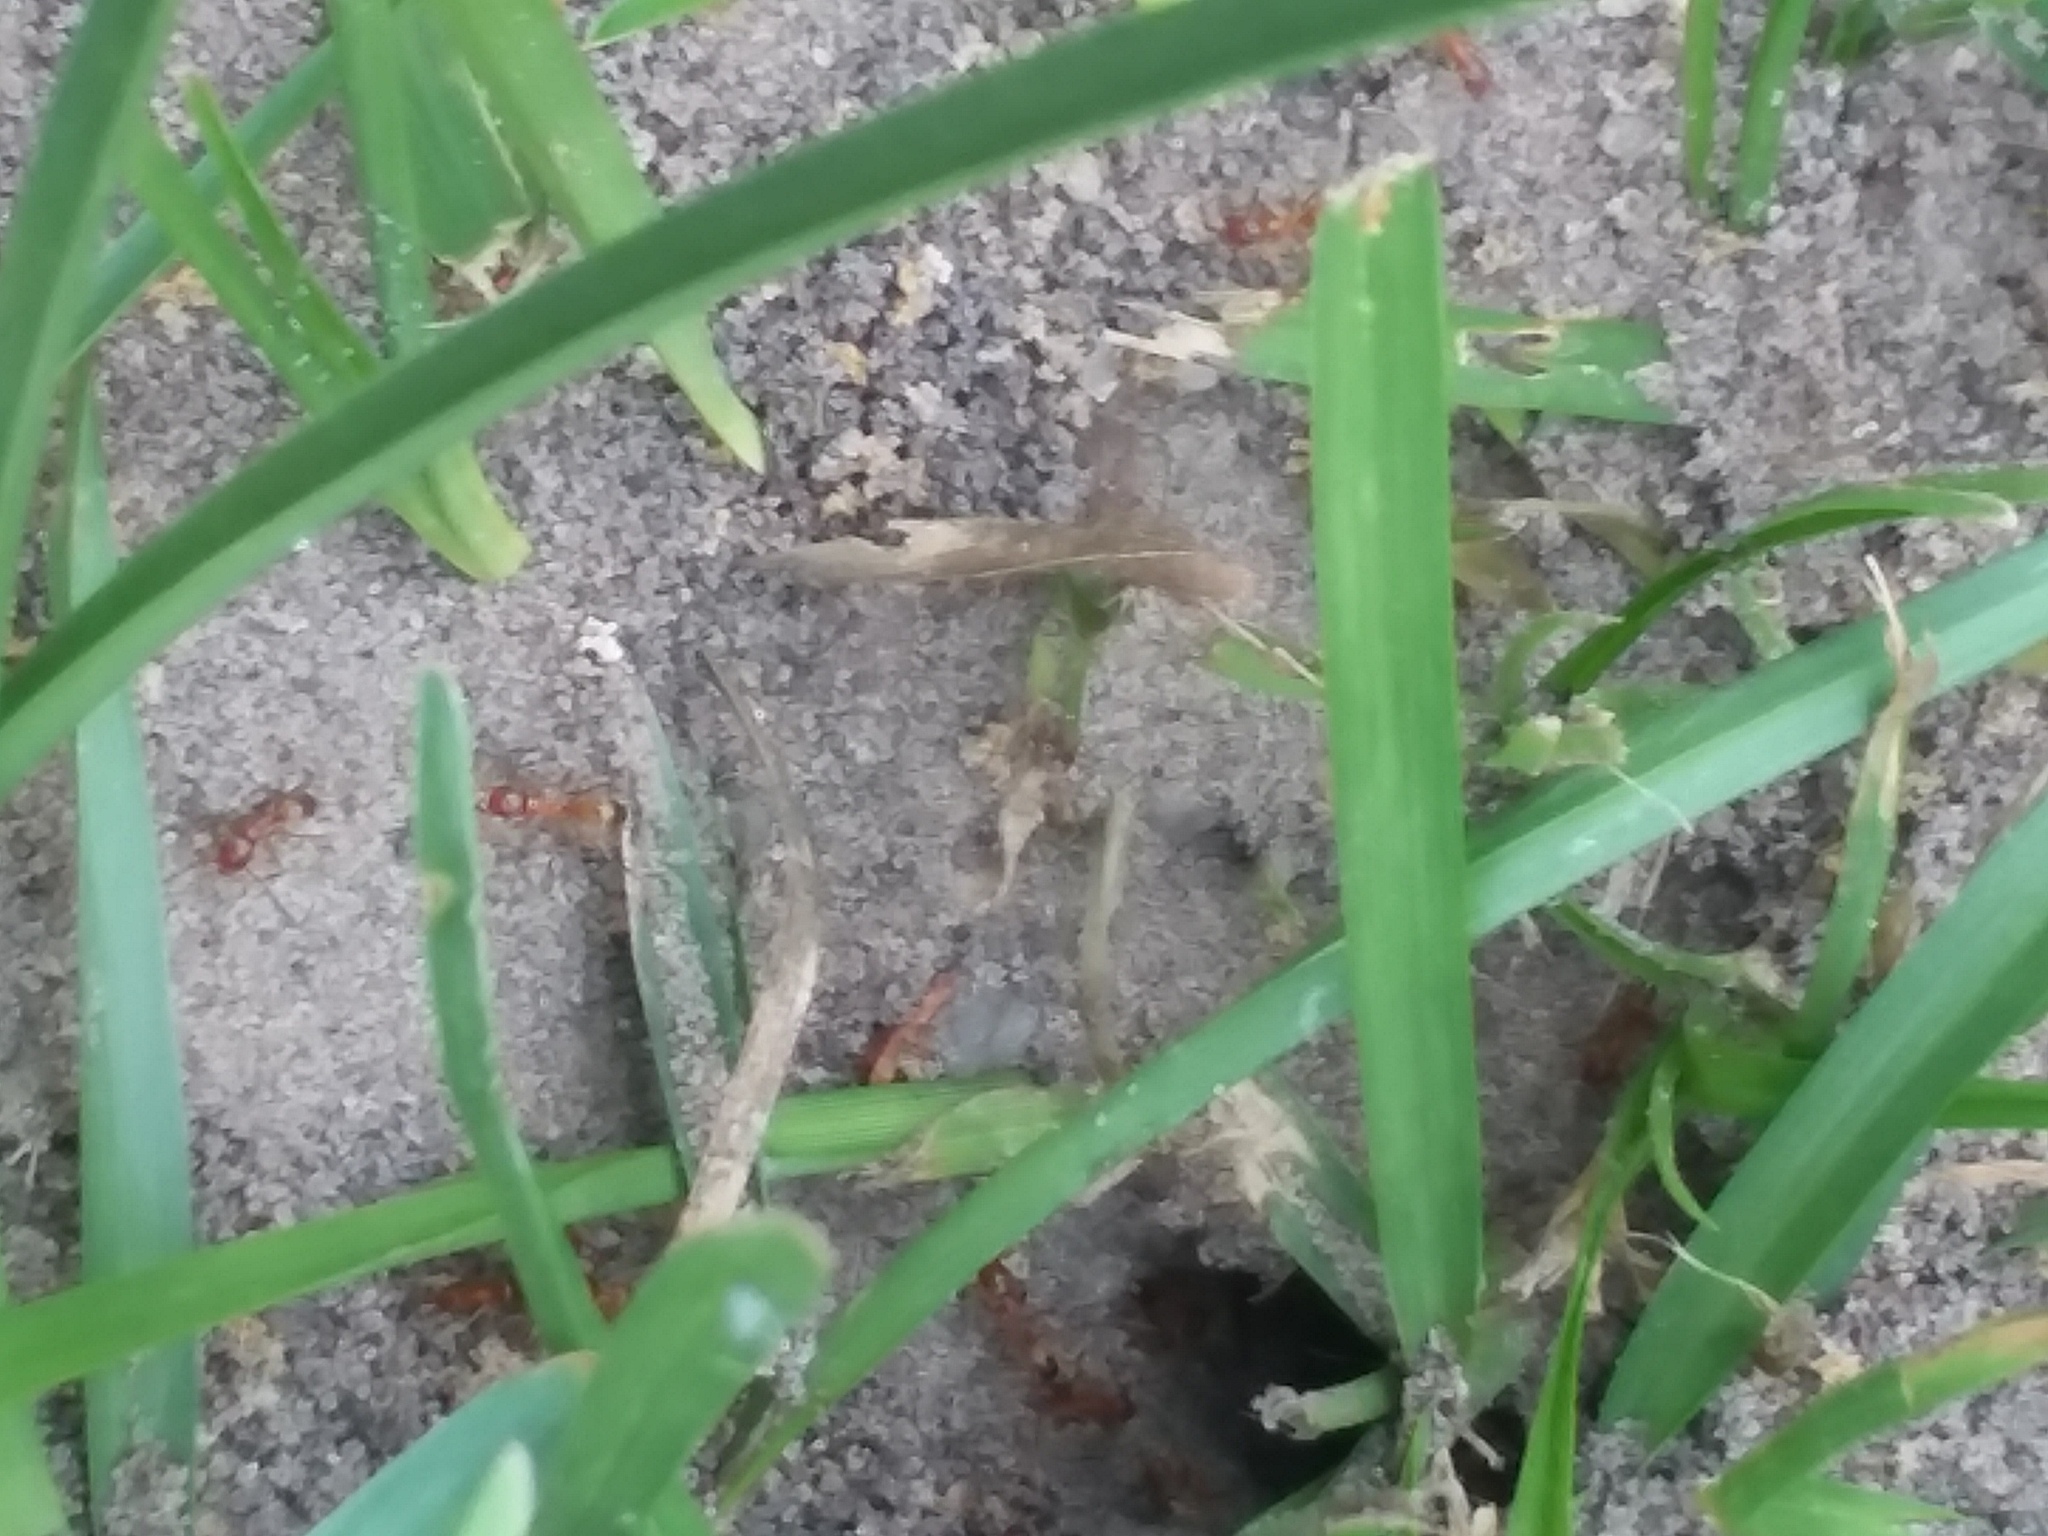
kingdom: Animalia
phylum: Arthropoda
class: Insecta
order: Hymenoptera
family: Formicidae
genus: Dorymyrmex
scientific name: Dorymyrmex bureni
